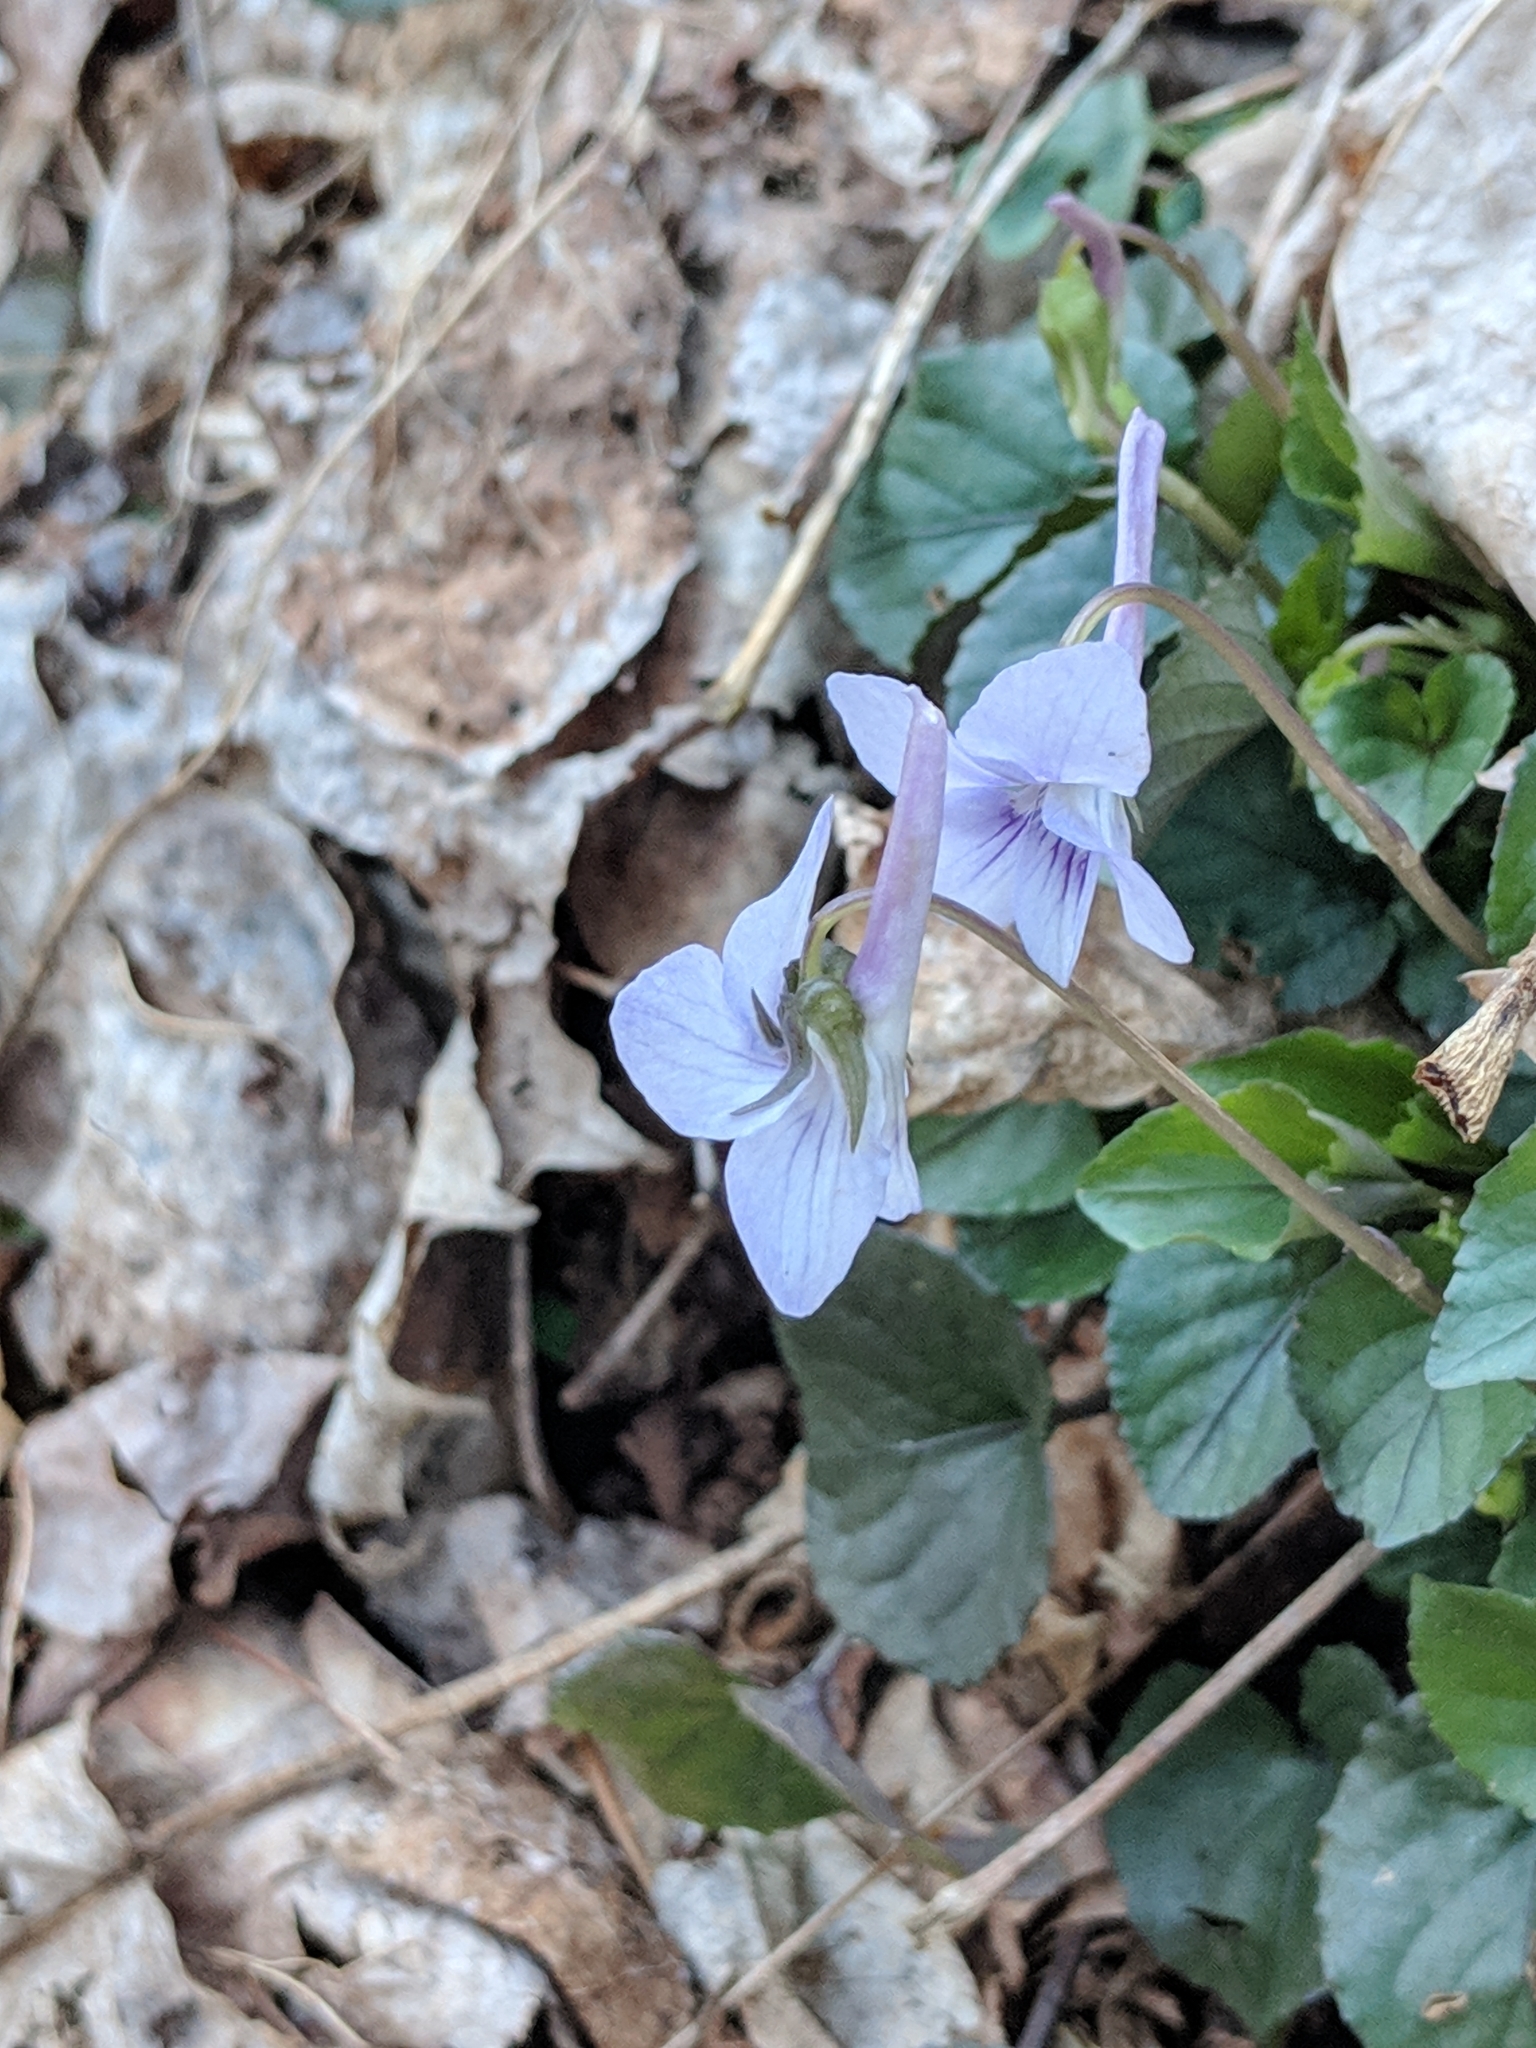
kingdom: Plantae
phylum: Tracheophyta
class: Magnoliopsida
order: Malpighiales
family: Violaceae
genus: Viola
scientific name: Viola rostrata
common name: Long-spur violet
